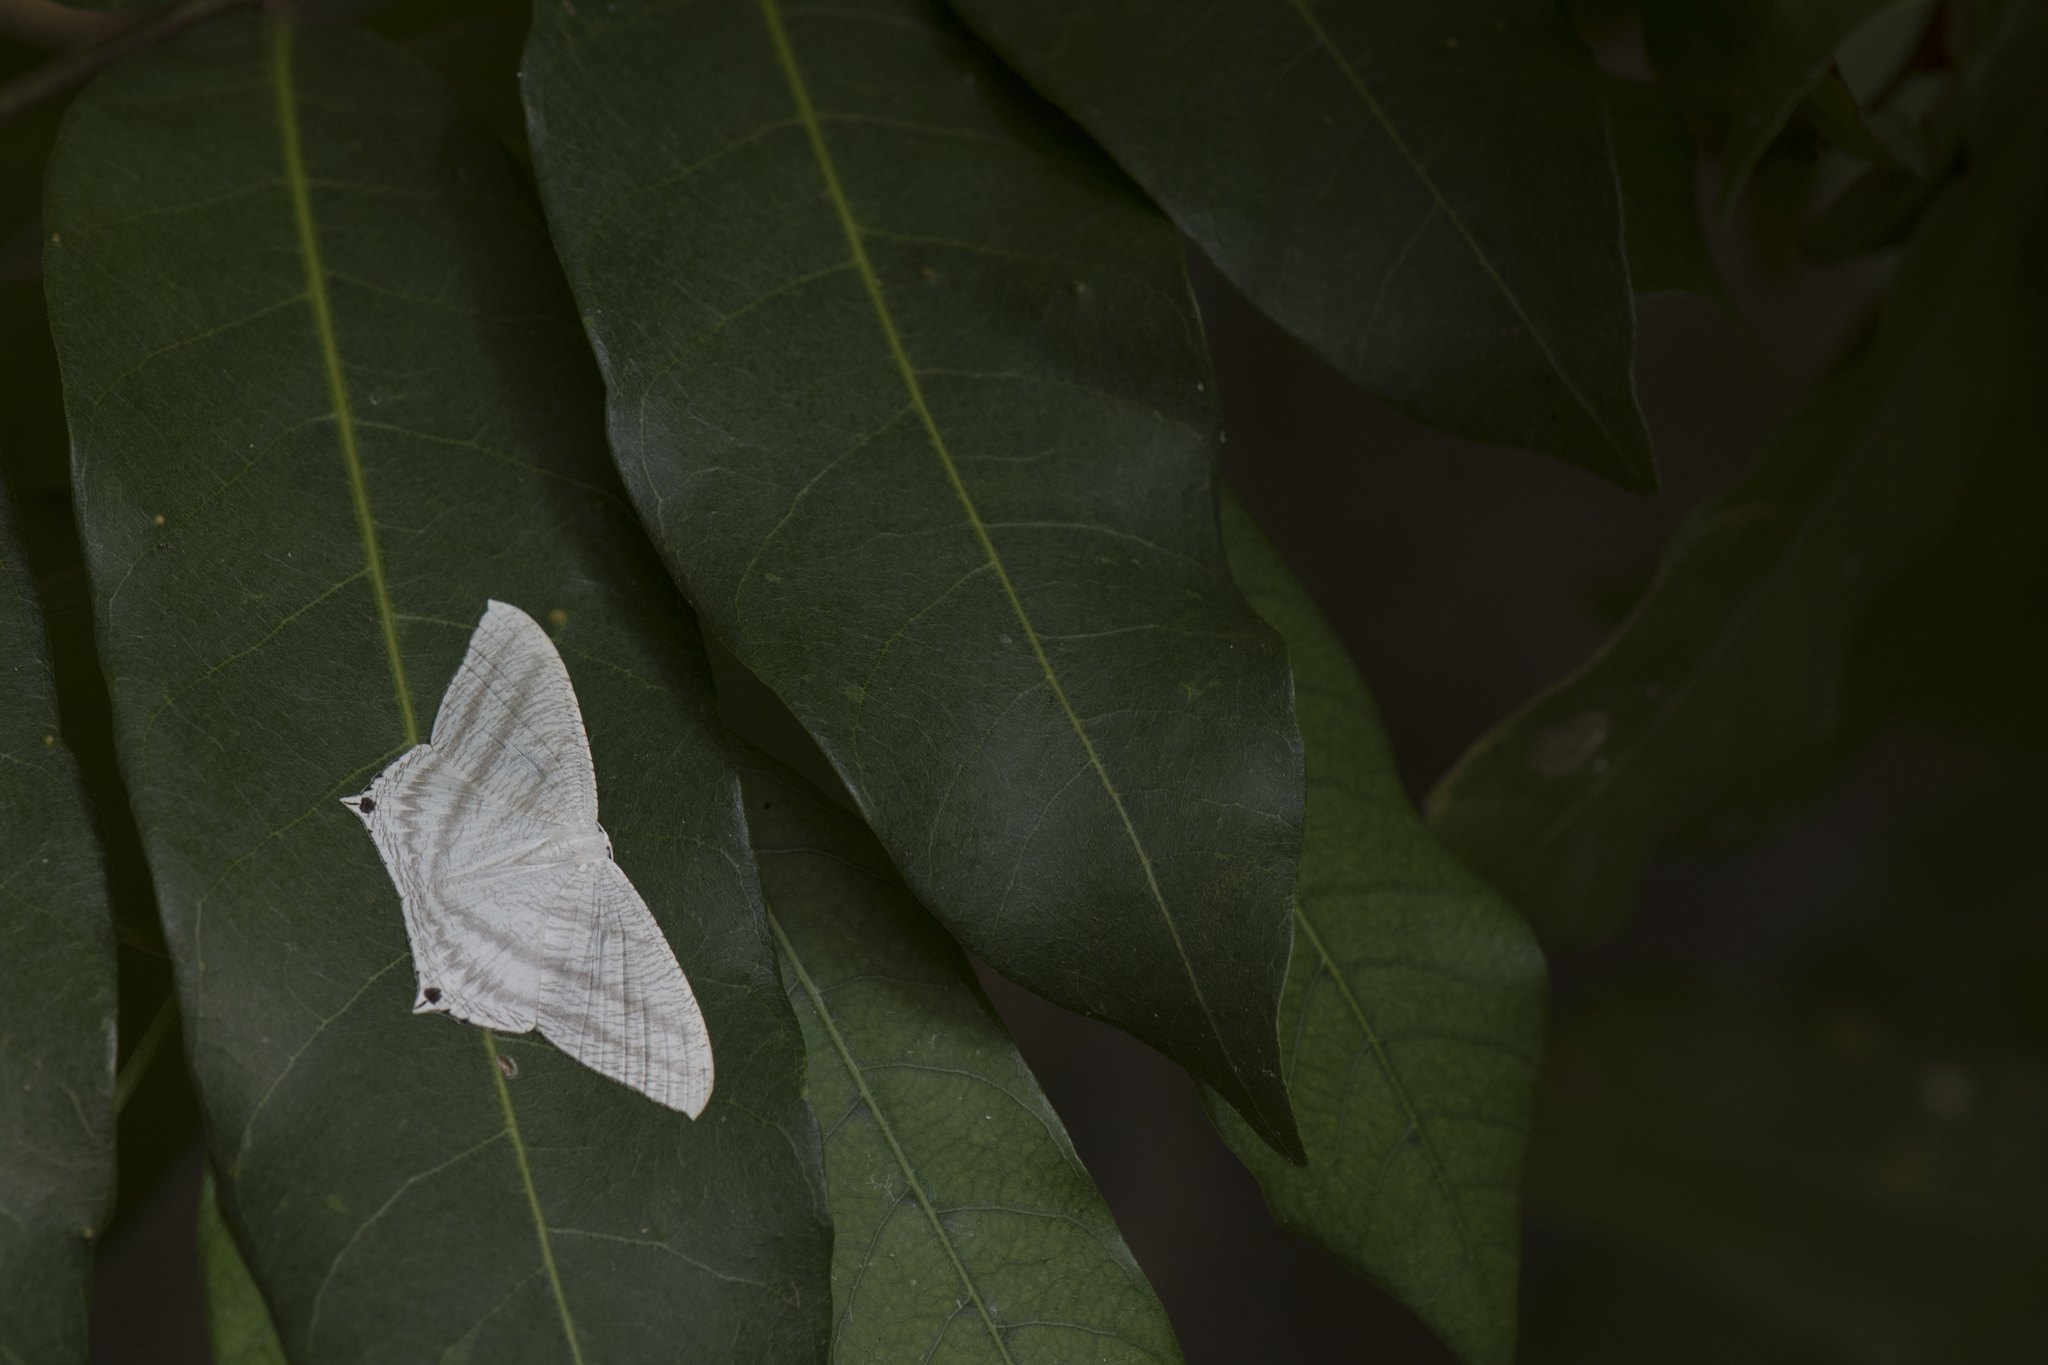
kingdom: Animalia
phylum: Arthropoda
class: Insecta
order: Lepidoptera
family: Uraniidae
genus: Micronia
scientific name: Micronia aculeata
